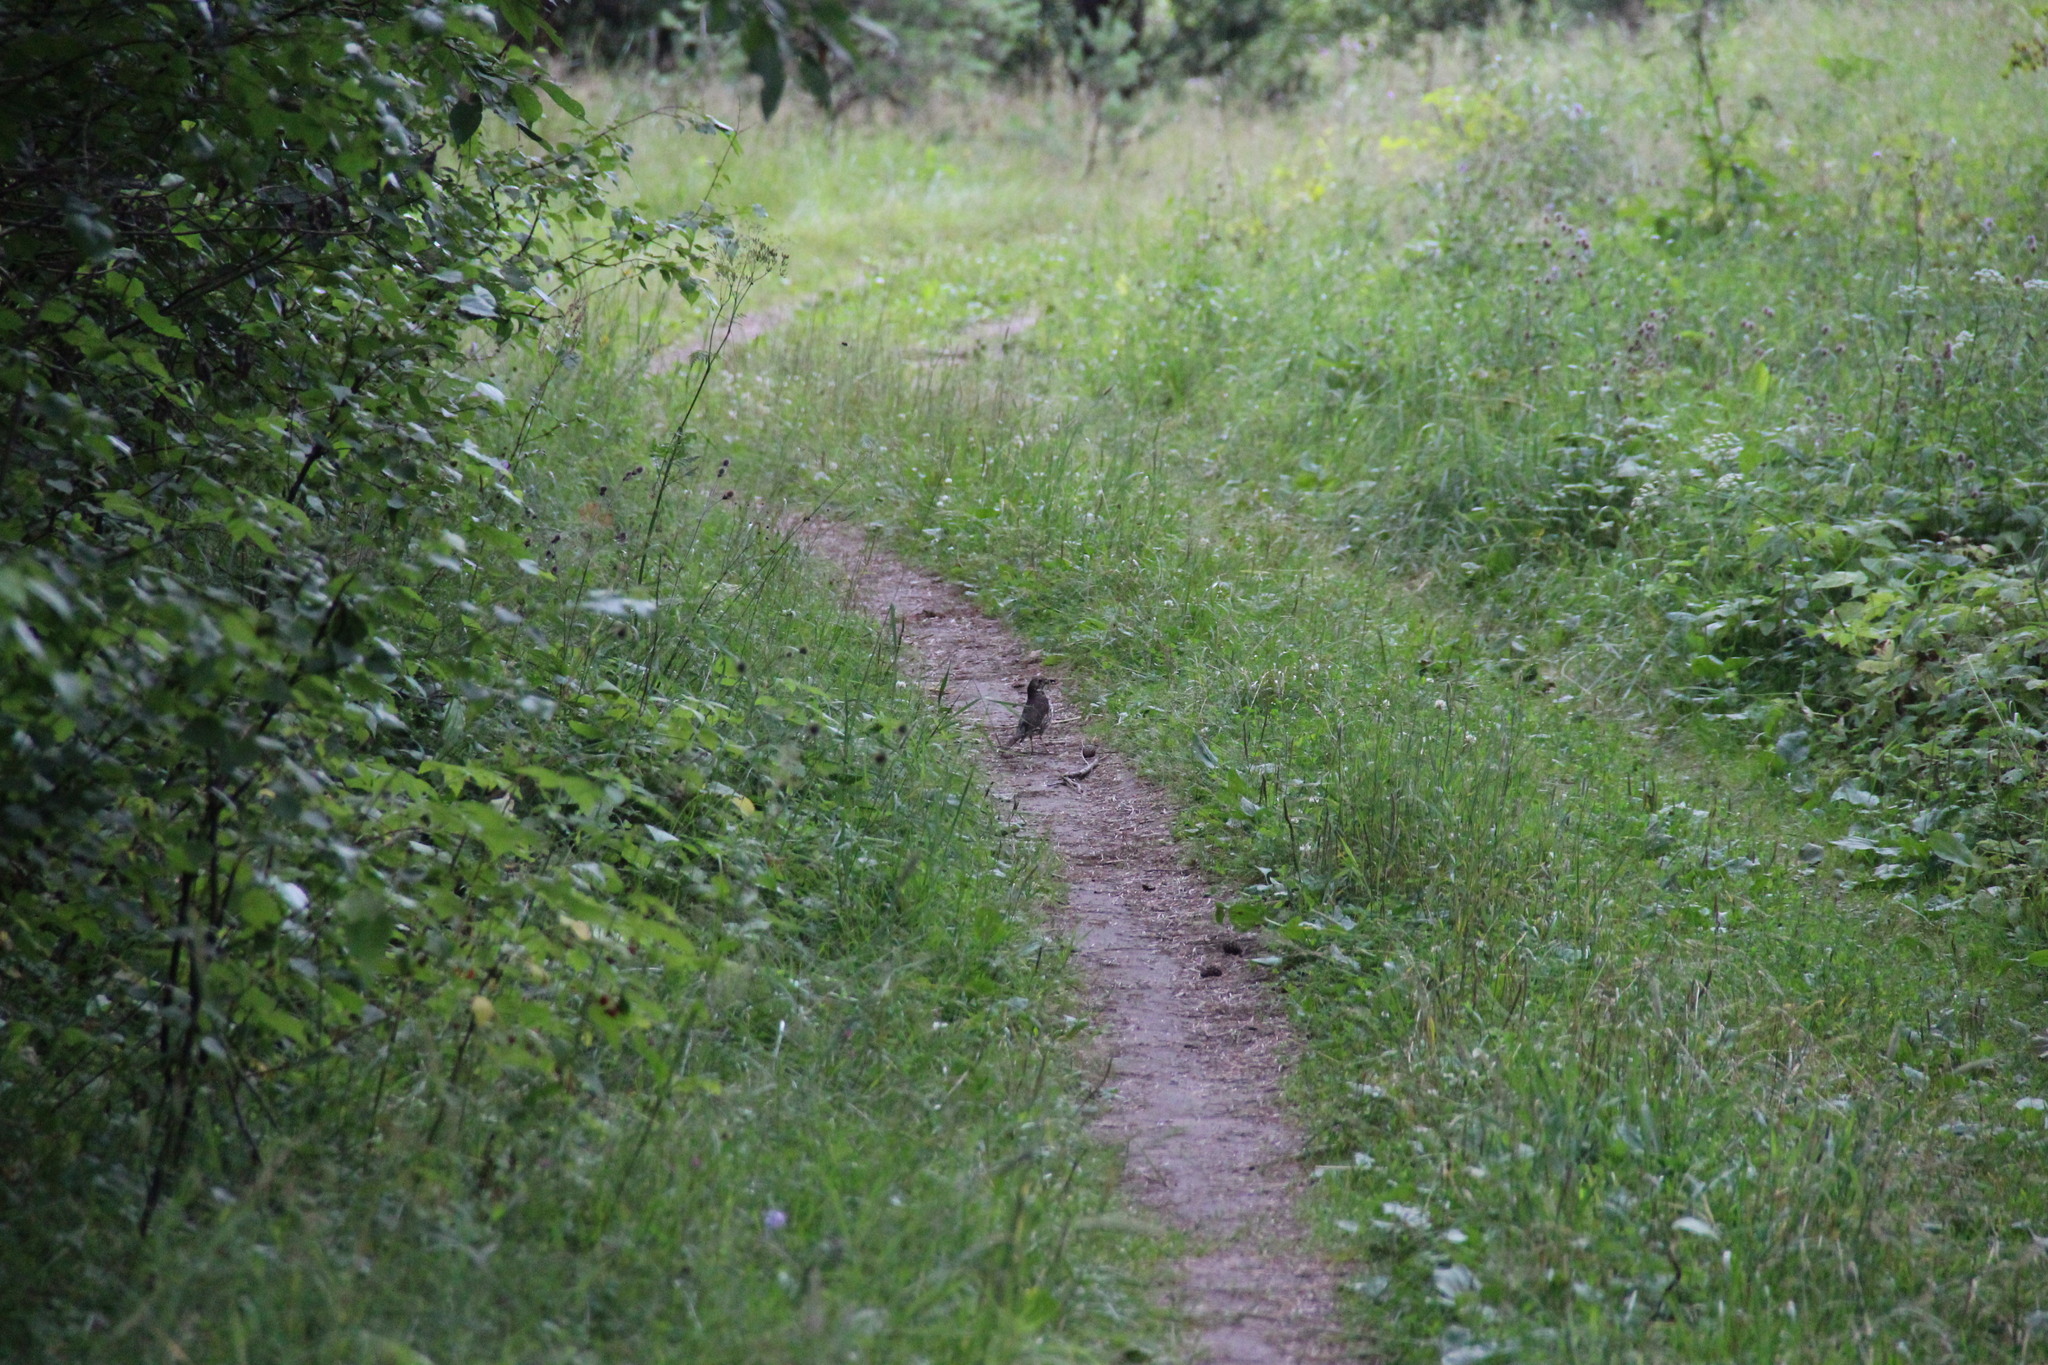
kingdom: Animalia
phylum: Chordata
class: Aves
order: Passeriformes
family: Turdidae
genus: Turdus
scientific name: Turdus philomelos
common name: Song thrush
